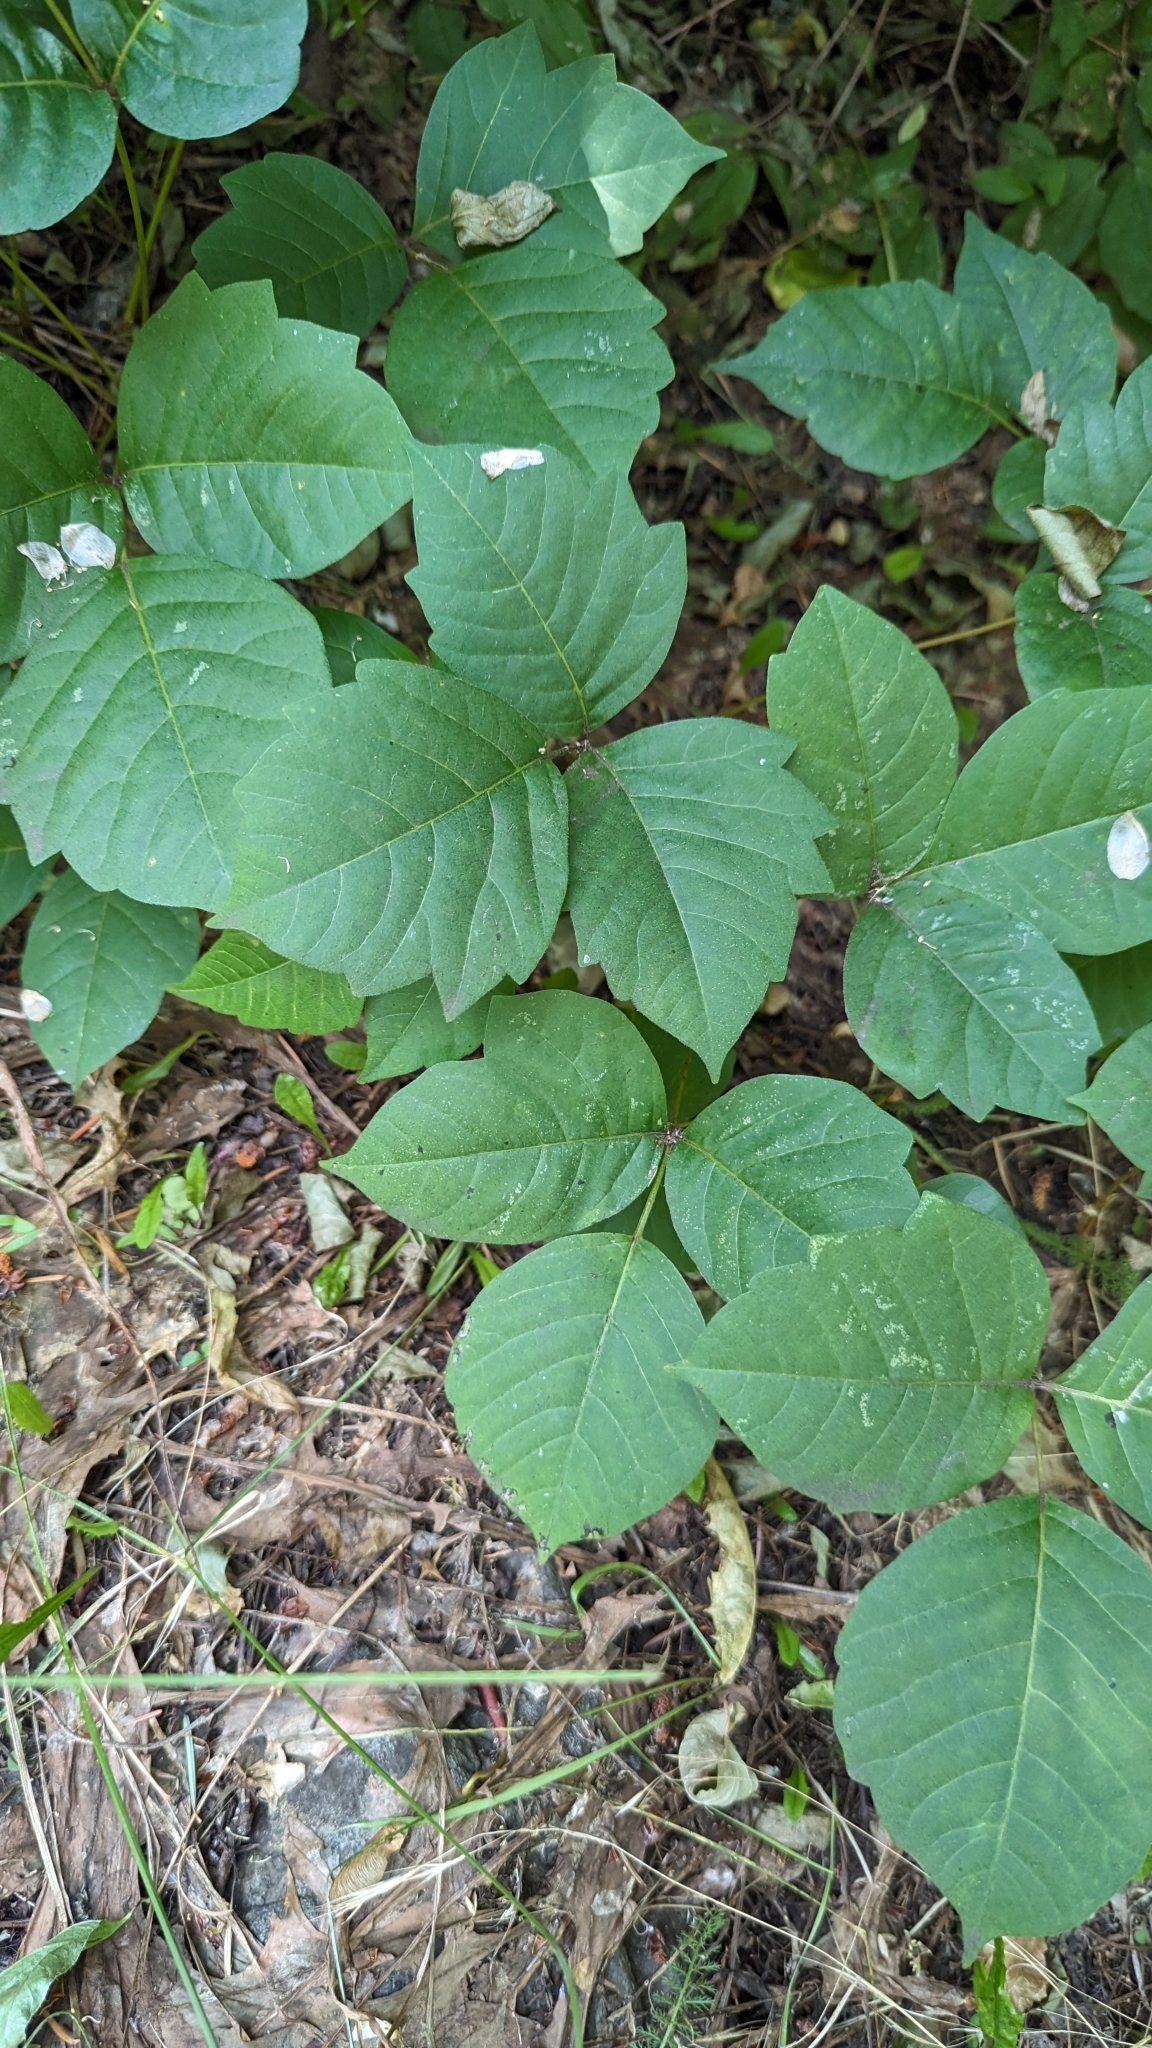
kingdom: Plantae
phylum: Tracheophyta
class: Magnoliopsida
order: Sapindales
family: Anacardiaceae
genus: Toxicodendron
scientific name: Toxicodendron rydbergii
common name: Rydberg's poison-ivy
